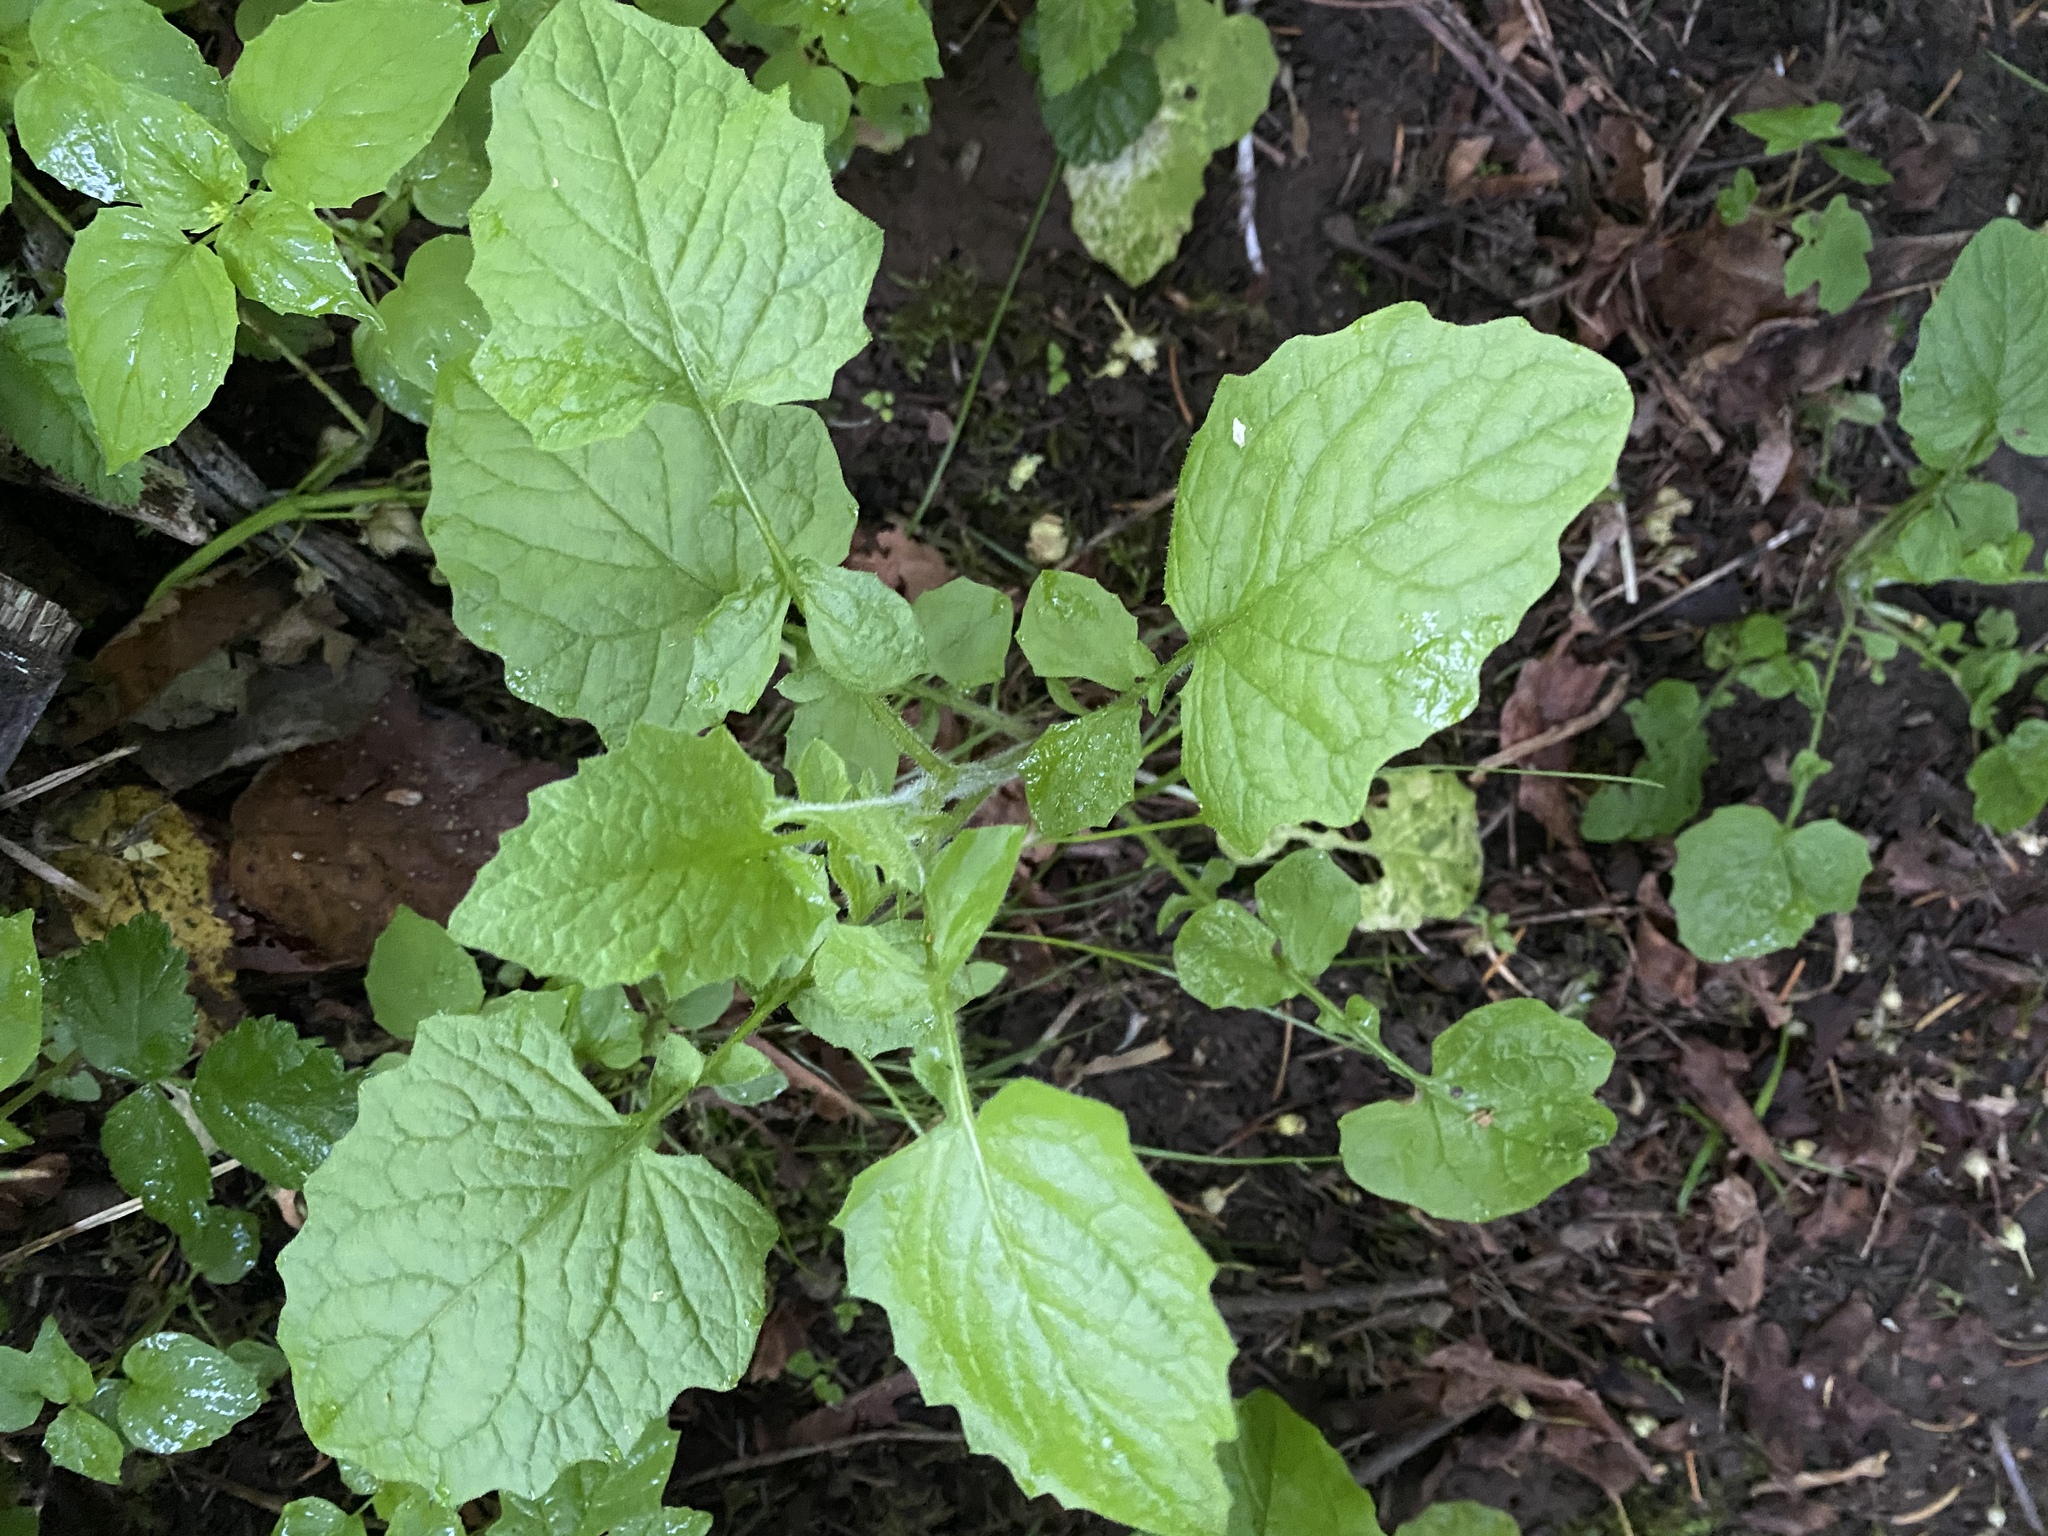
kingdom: Plantae
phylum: Tracheophyta
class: Magnoliopsida
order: Asterales
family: Asteraceae
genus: Lapsana
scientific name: Lapsana communis
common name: Nipplewort
